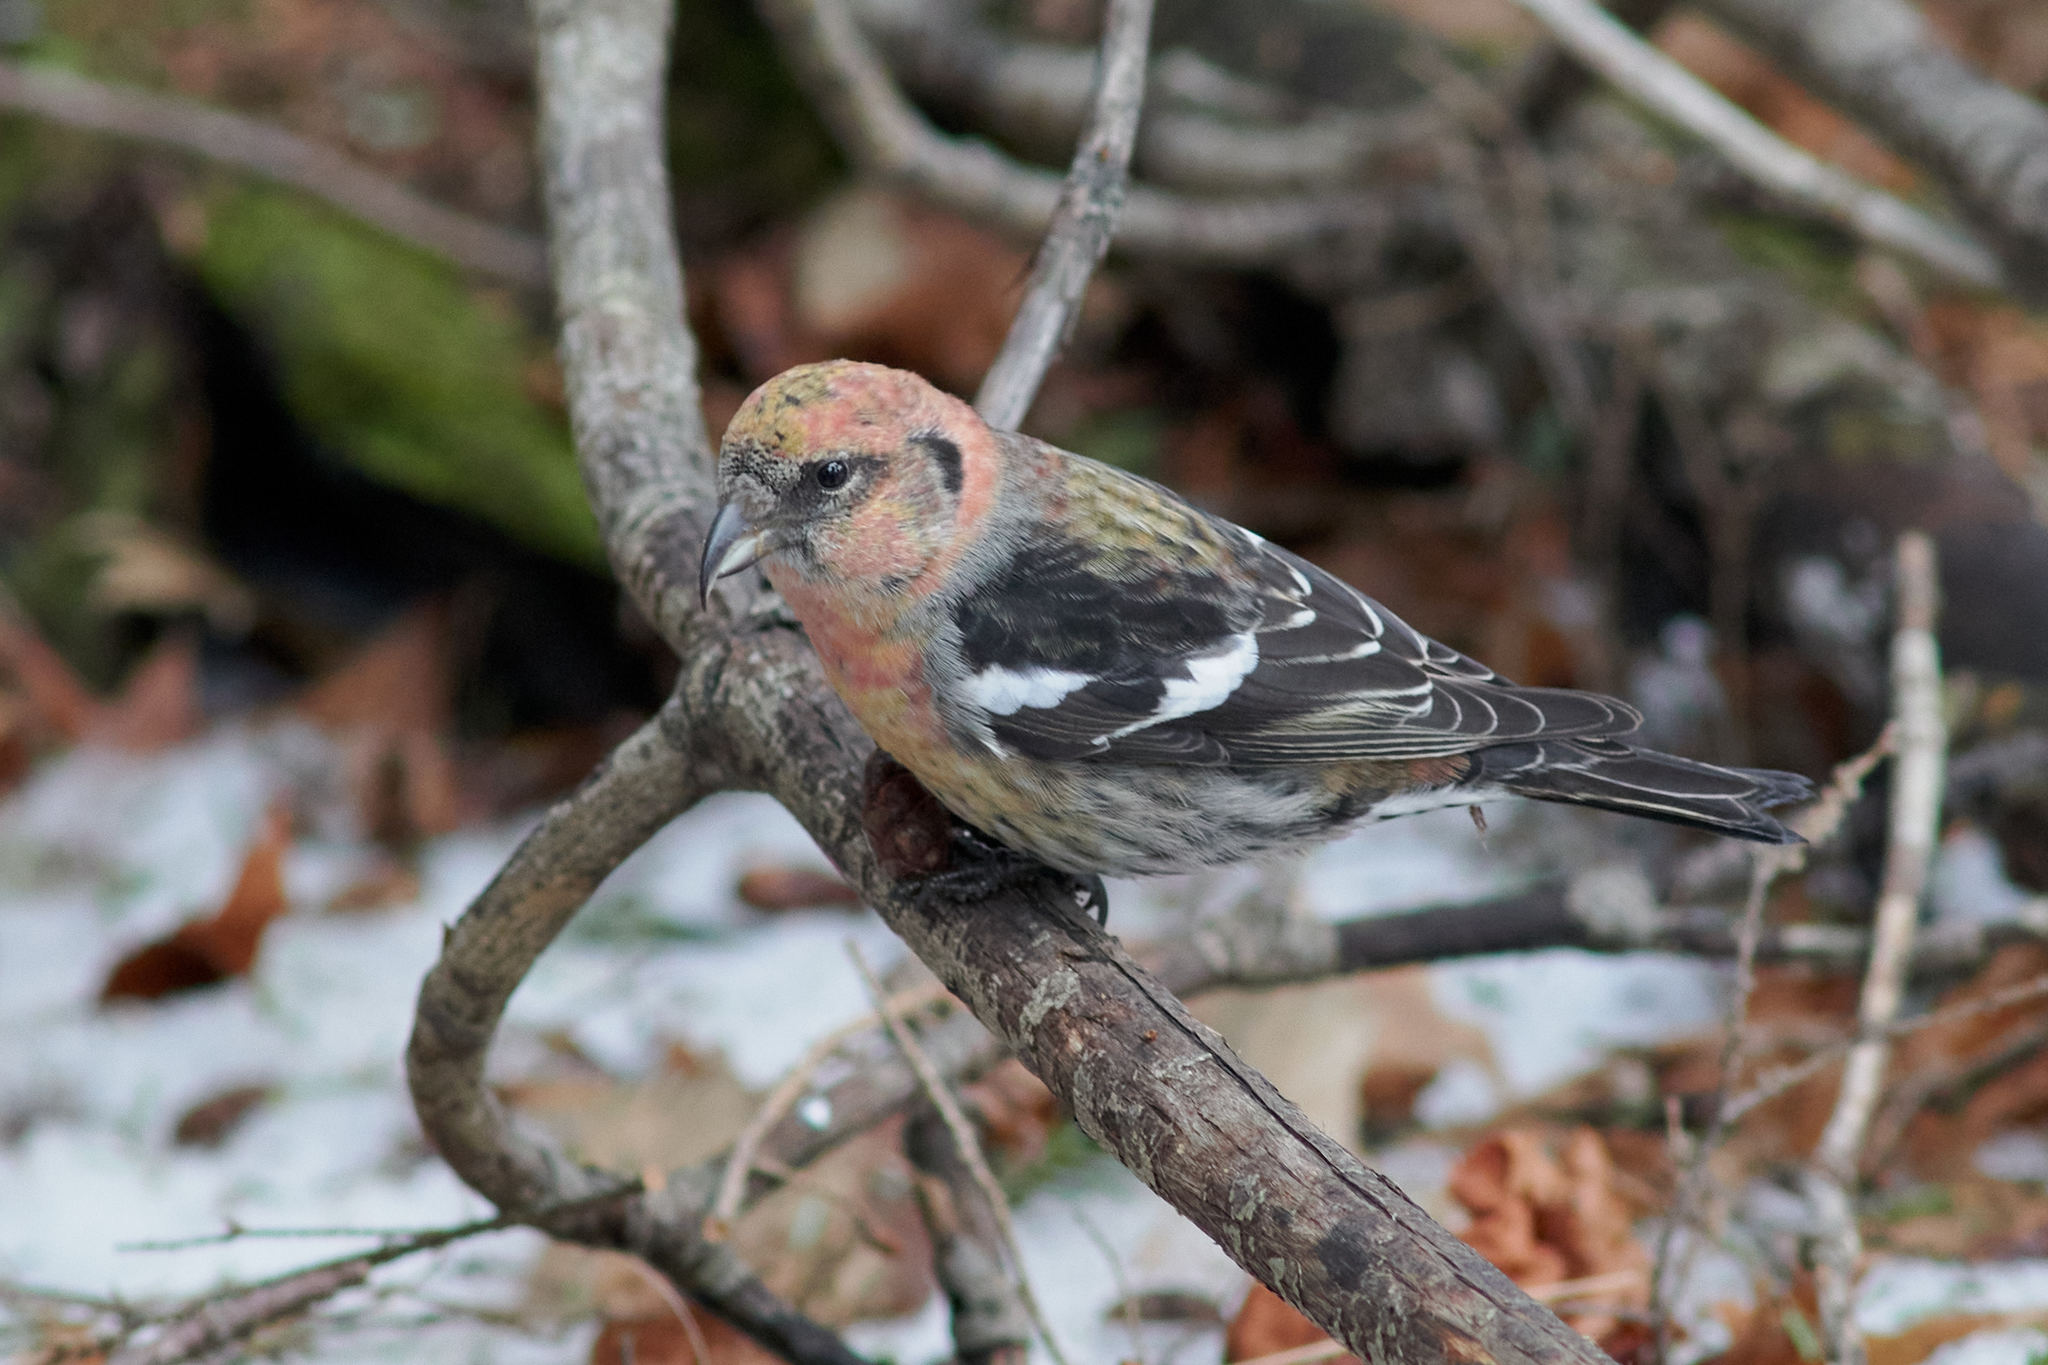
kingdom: Animalia
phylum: Chordata
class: Aves
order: Passeriformes
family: Fringillidae
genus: Loxia
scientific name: Loxia leucoptera
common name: Two-barred crossbill
